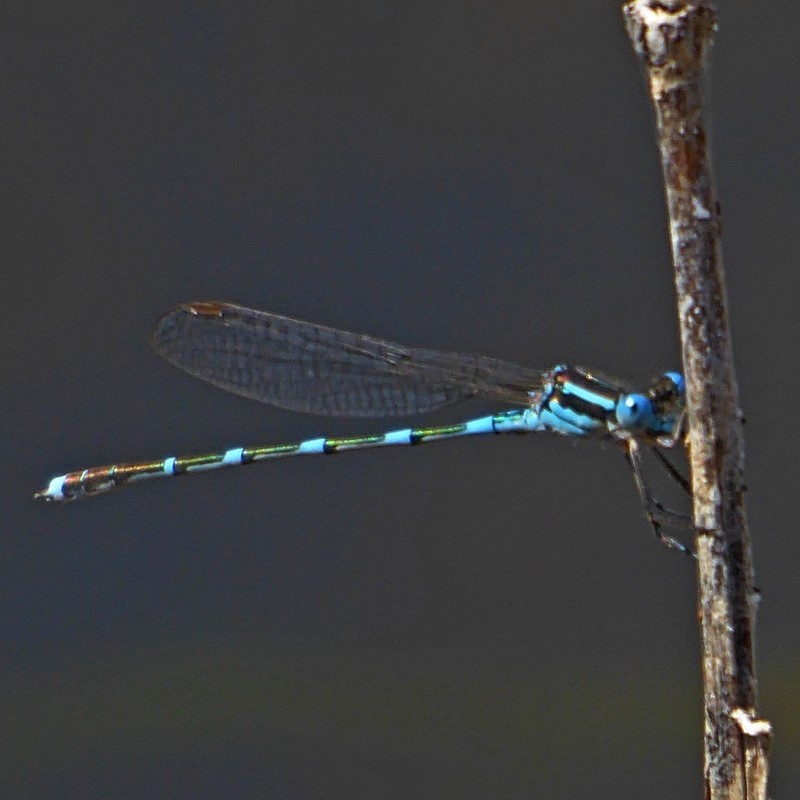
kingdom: Animalia
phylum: Arthropoda
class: Insecta
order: Odonata
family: Lestidae
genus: Austrolestes
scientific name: Austrolestes leda
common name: Wandering ringtail
